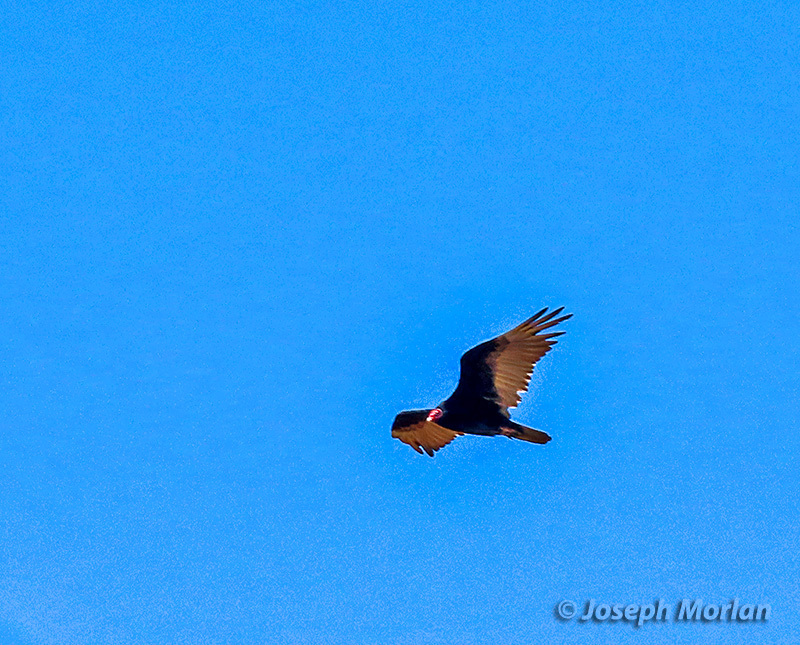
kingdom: Animalia
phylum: Chordata
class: Aves
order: Accipitriformes
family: Cathartidae
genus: Cathartes
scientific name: Cathartes aura
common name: Turkey vulture
